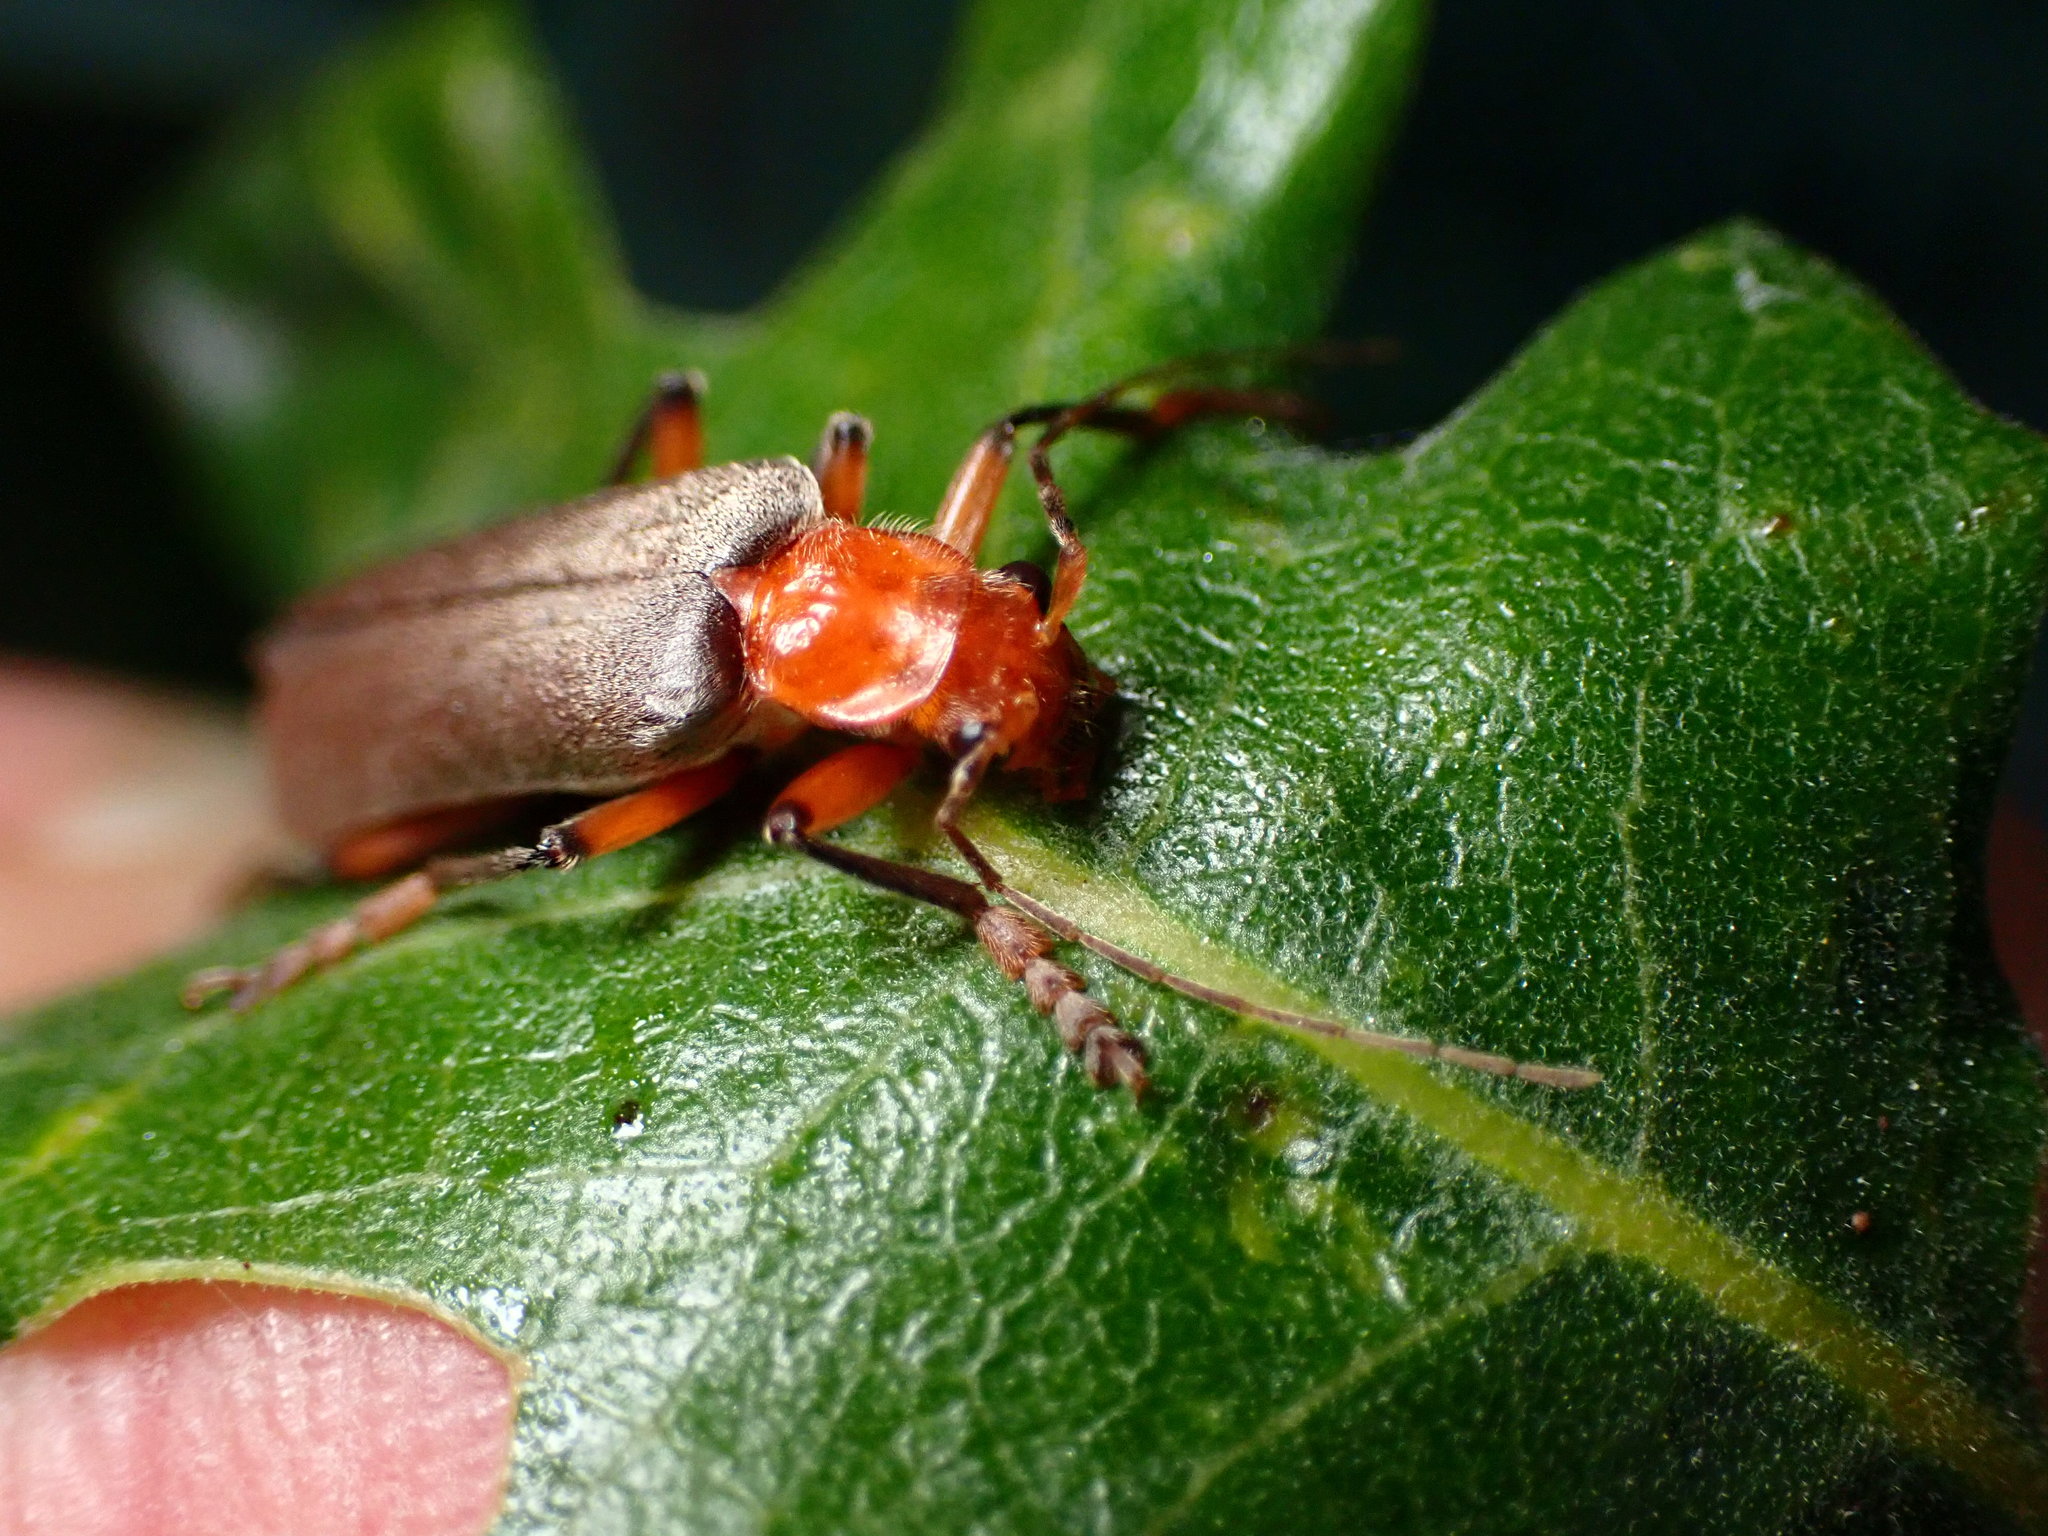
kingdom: Animalia
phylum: Arthropoda
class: Insecta
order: Coleoptera
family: Cantharidae
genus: Pacificanthia
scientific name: Pacificanthia consors
